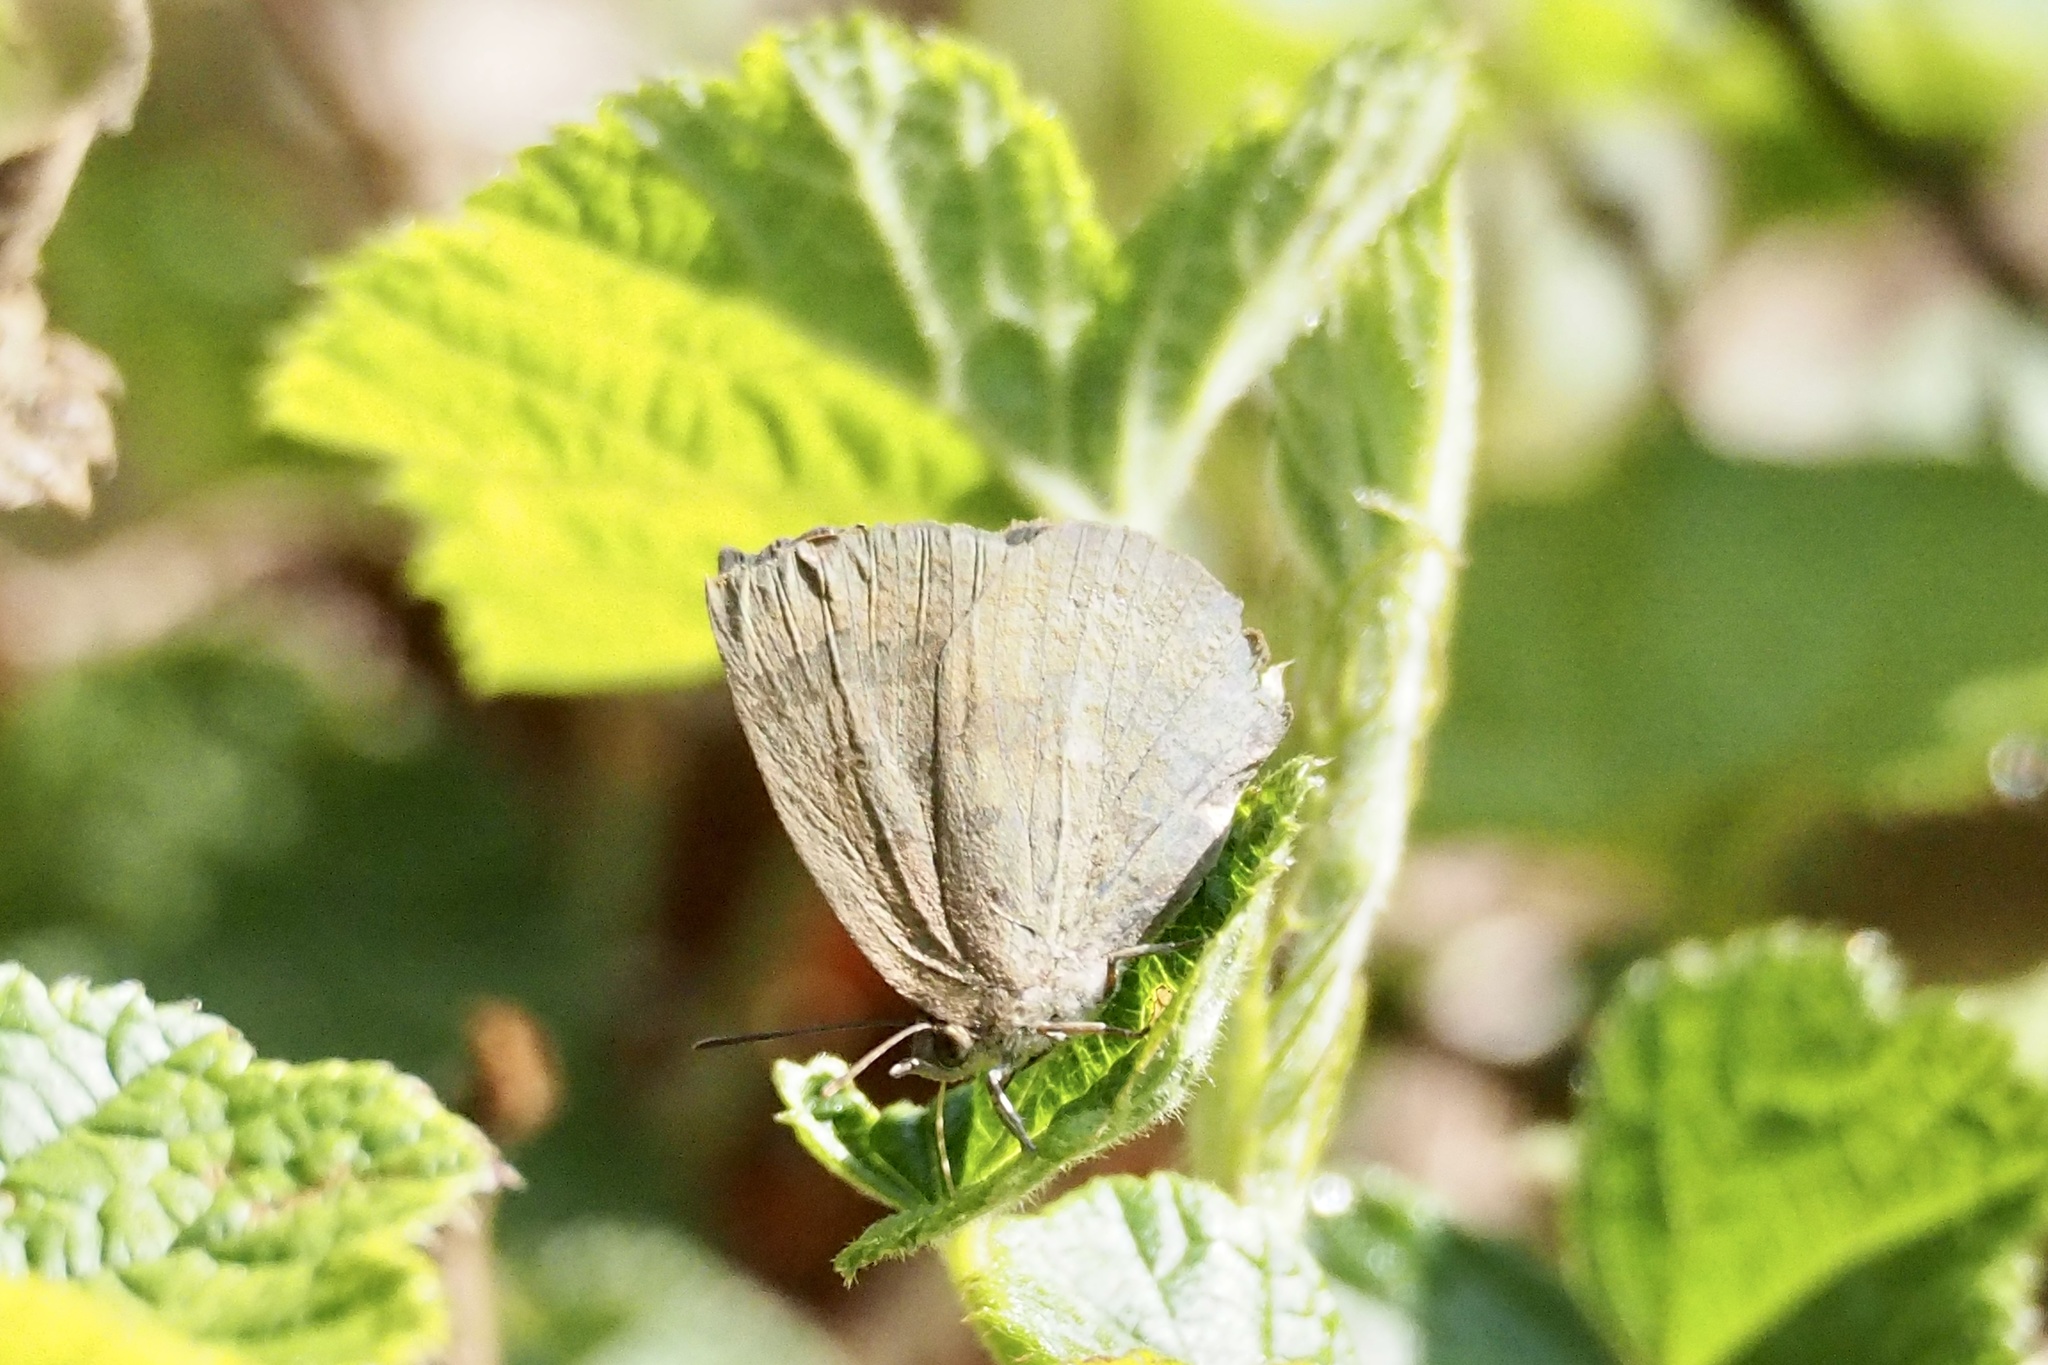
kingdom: Animalia
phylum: Arthropoda
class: Insecta
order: Lepidoptera
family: Lycaenidae
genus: Arhopala
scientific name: Arhopala japonica
